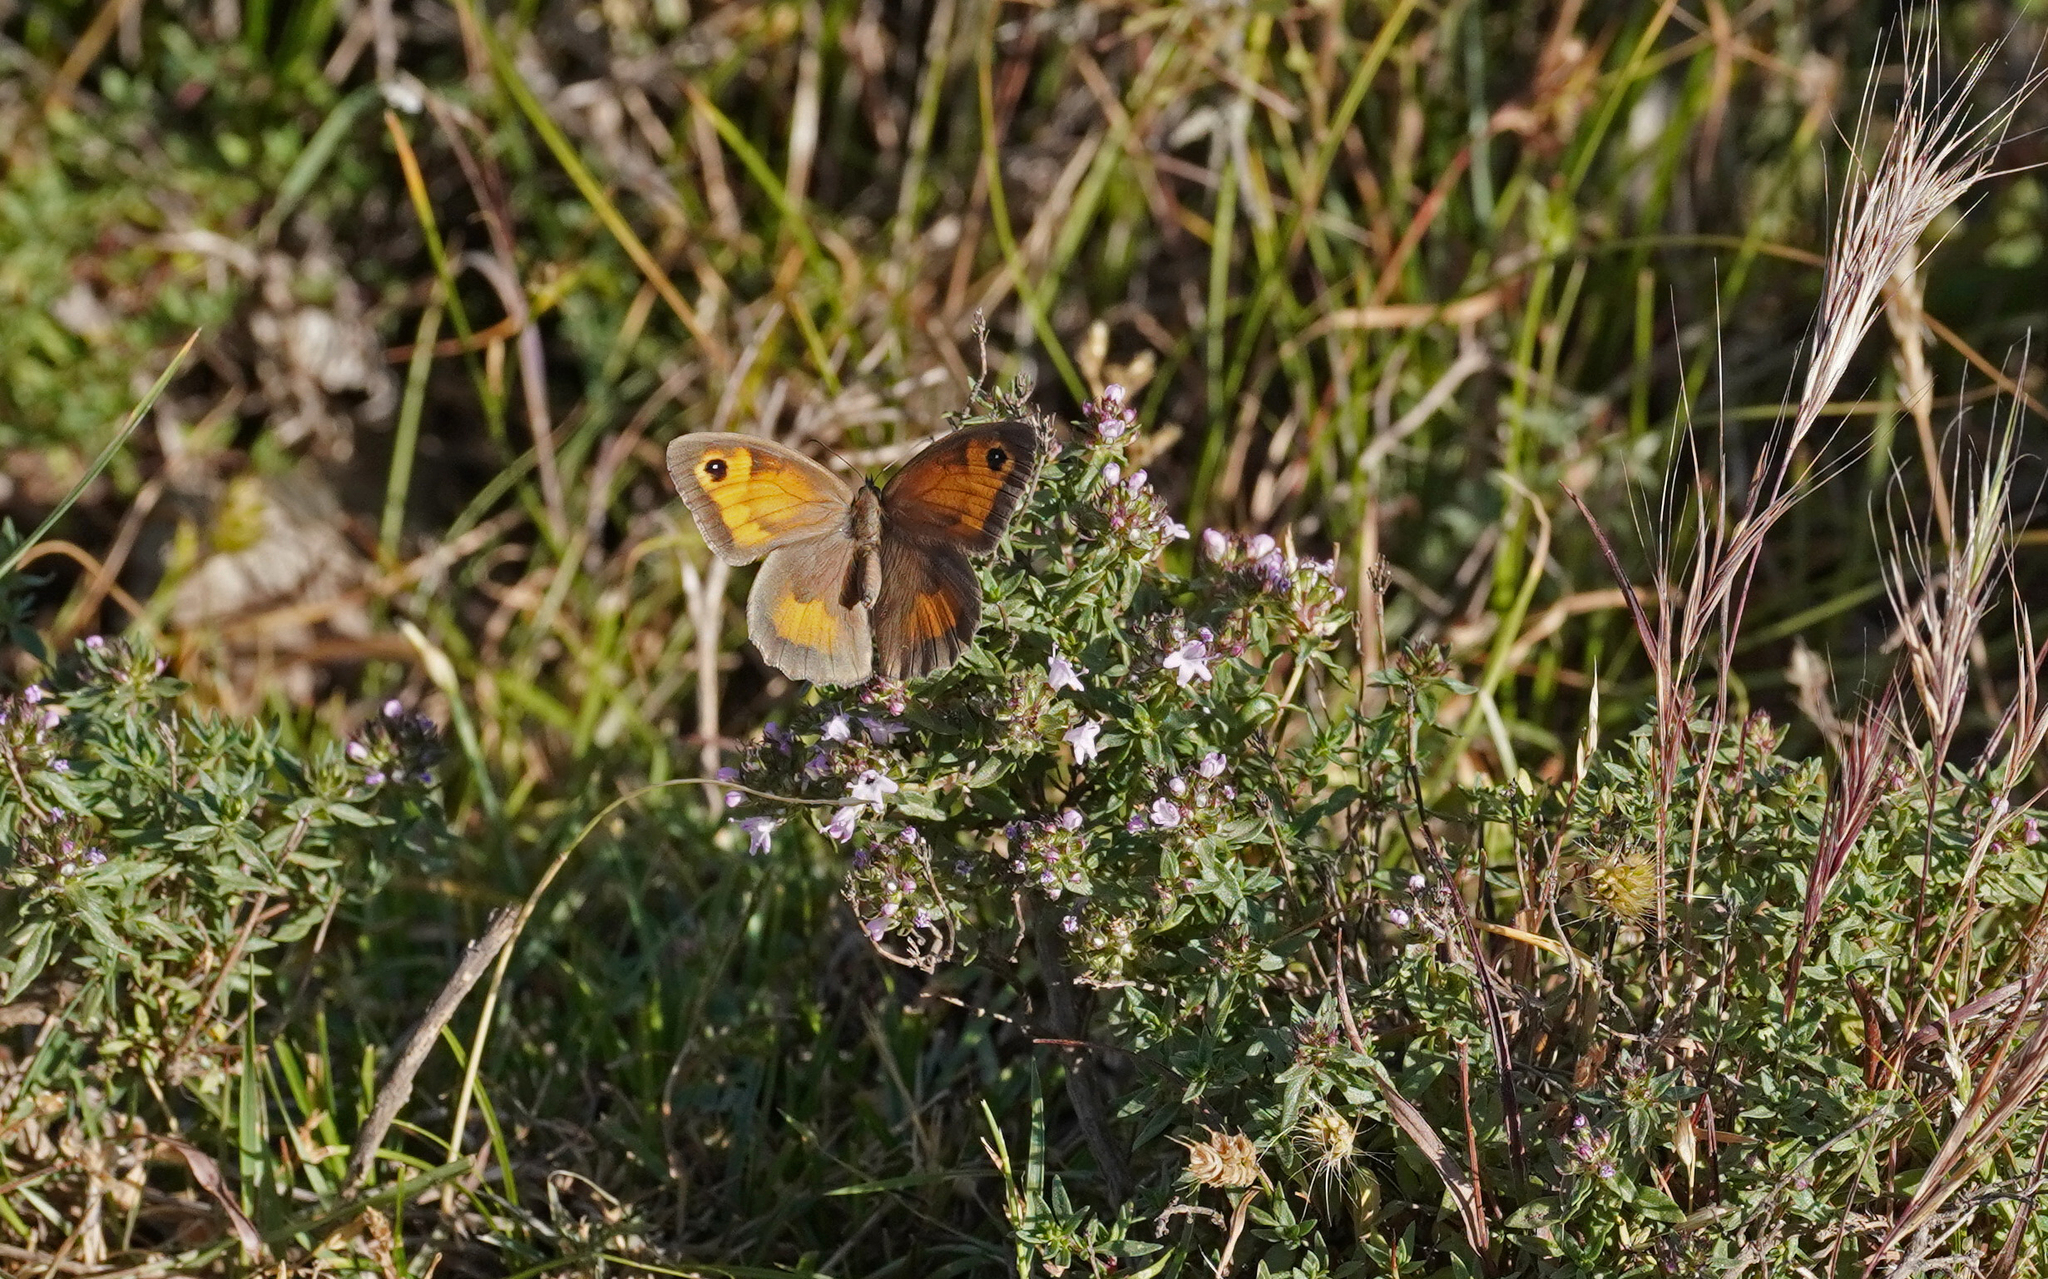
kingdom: Animalia
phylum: Arthropoda
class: Insecta
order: Lepidoptera
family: Nymphalidae
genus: Maniola
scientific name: Maniola jurtina
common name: Meadow brown
